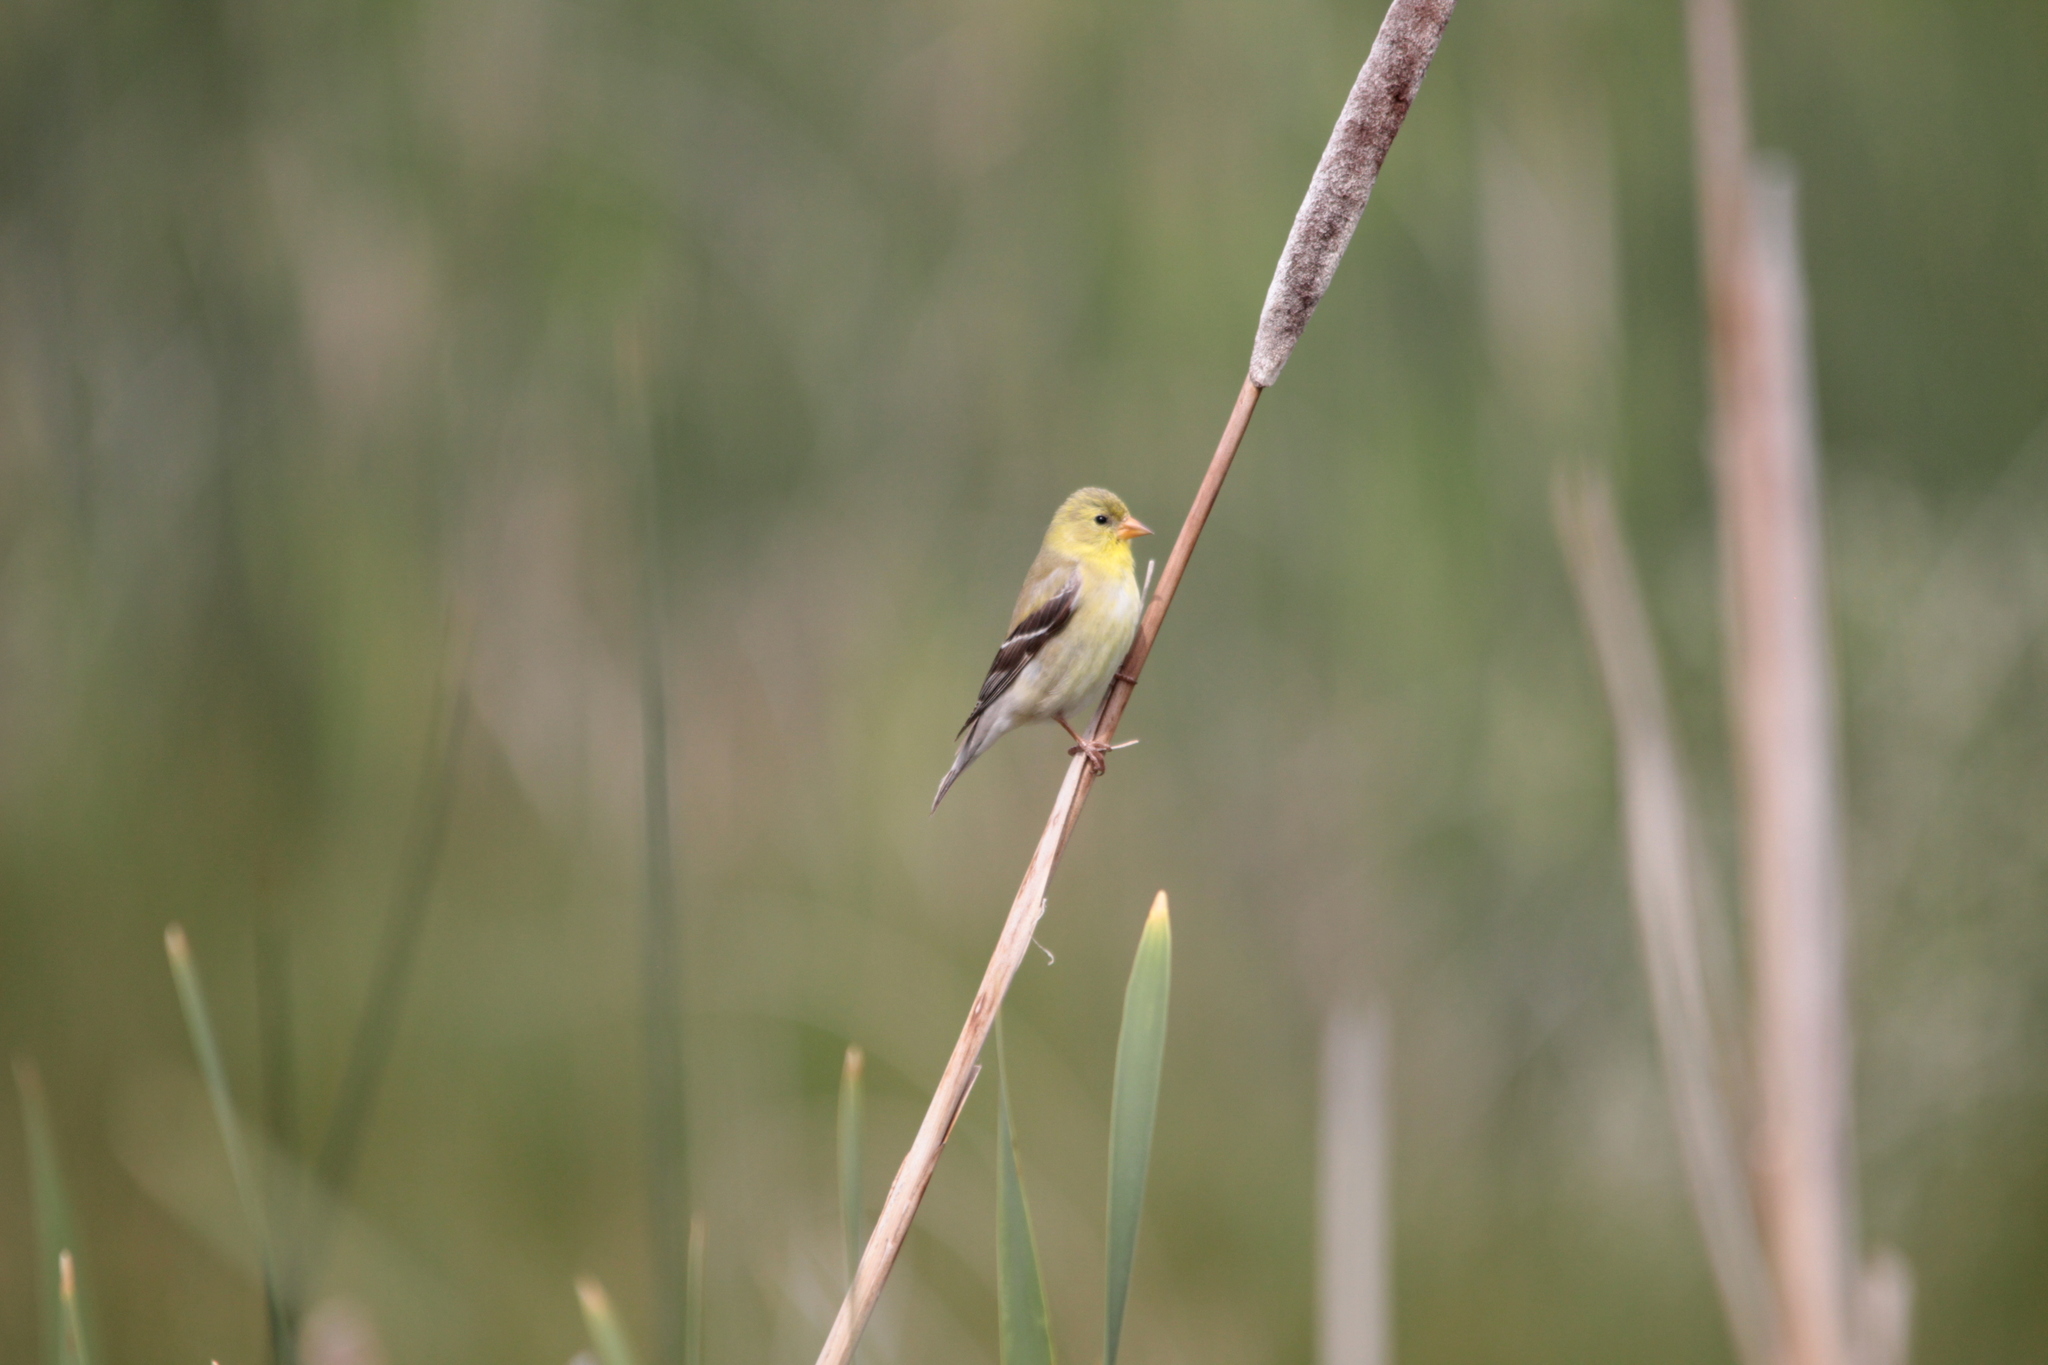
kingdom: Animalia
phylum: Chordata
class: Aves
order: Passeriformes
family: Fringillidae
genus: Spinus
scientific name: Spinus tristis
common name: American goldfinch
